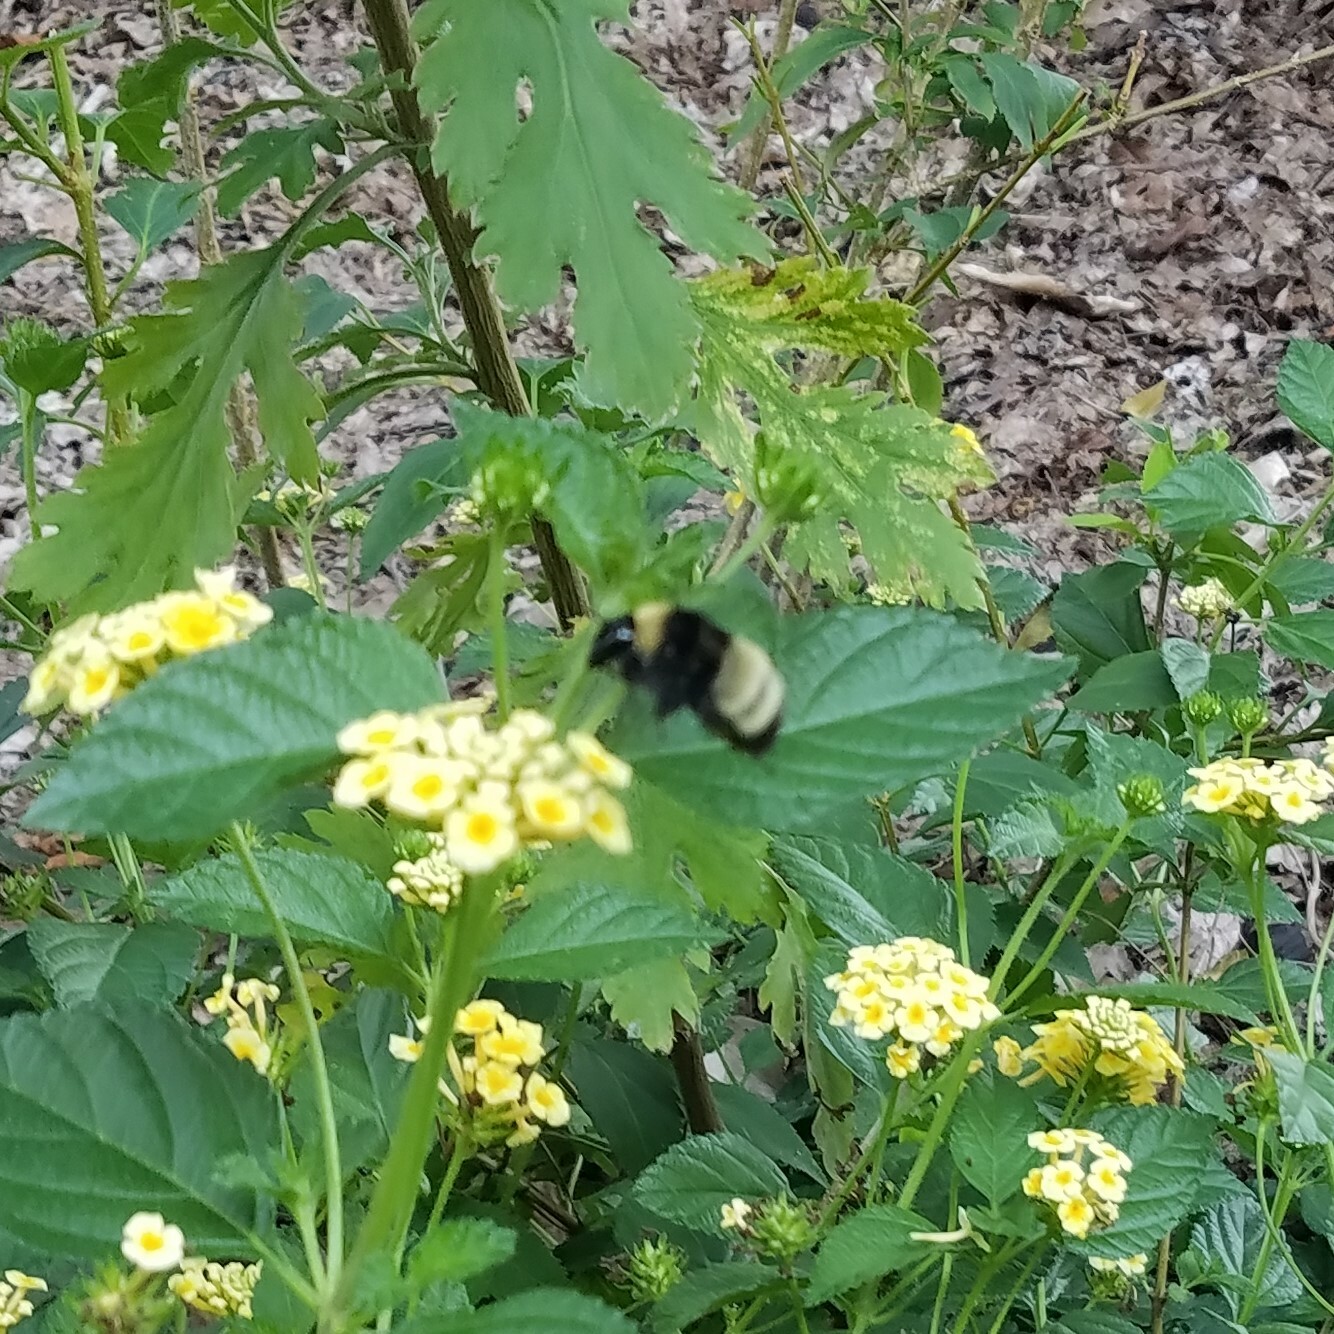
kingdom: Animalia
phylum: Arthropoda
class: Insecta
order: Hymenoptera
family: Apidae
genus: Bombus
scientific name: Bombus pensylvanicus
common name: Bumble bee
